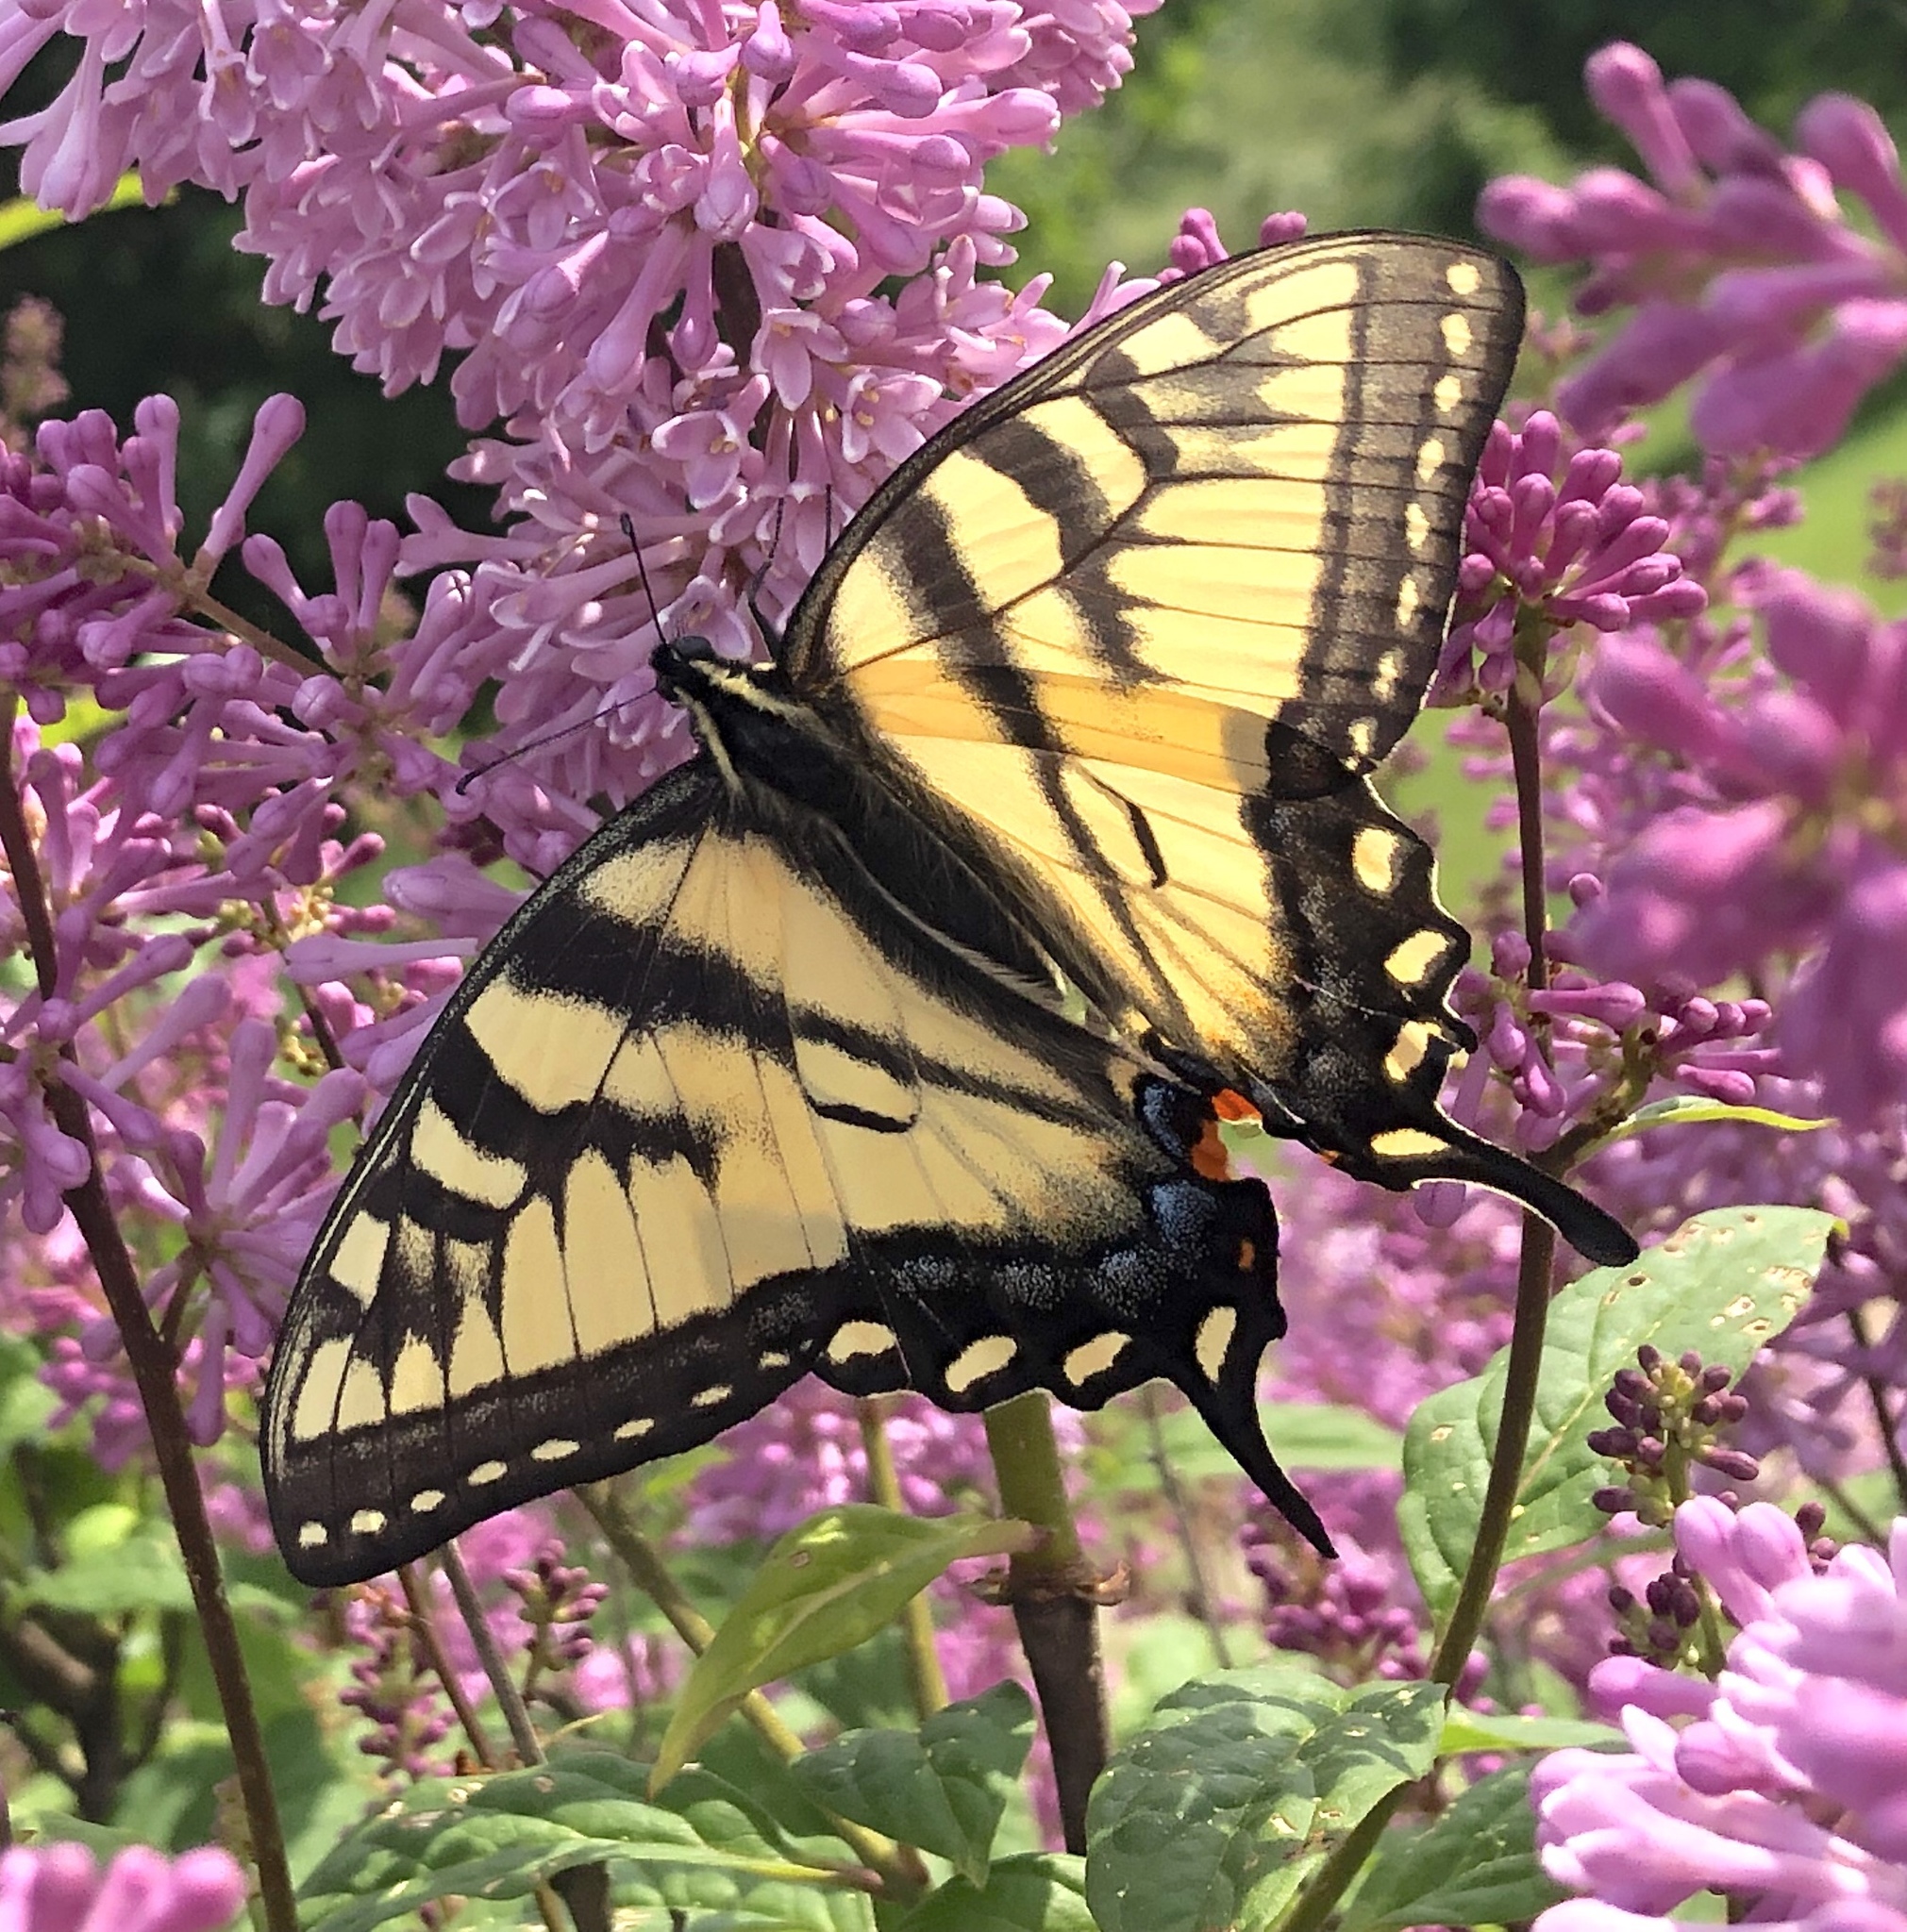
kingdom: Animalia
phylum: Arthropoda
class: Insecta
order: Lepidoptera
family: Papilionidae
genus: Papilio
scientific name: Papilio glaucus
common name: Tiger swallowtail
